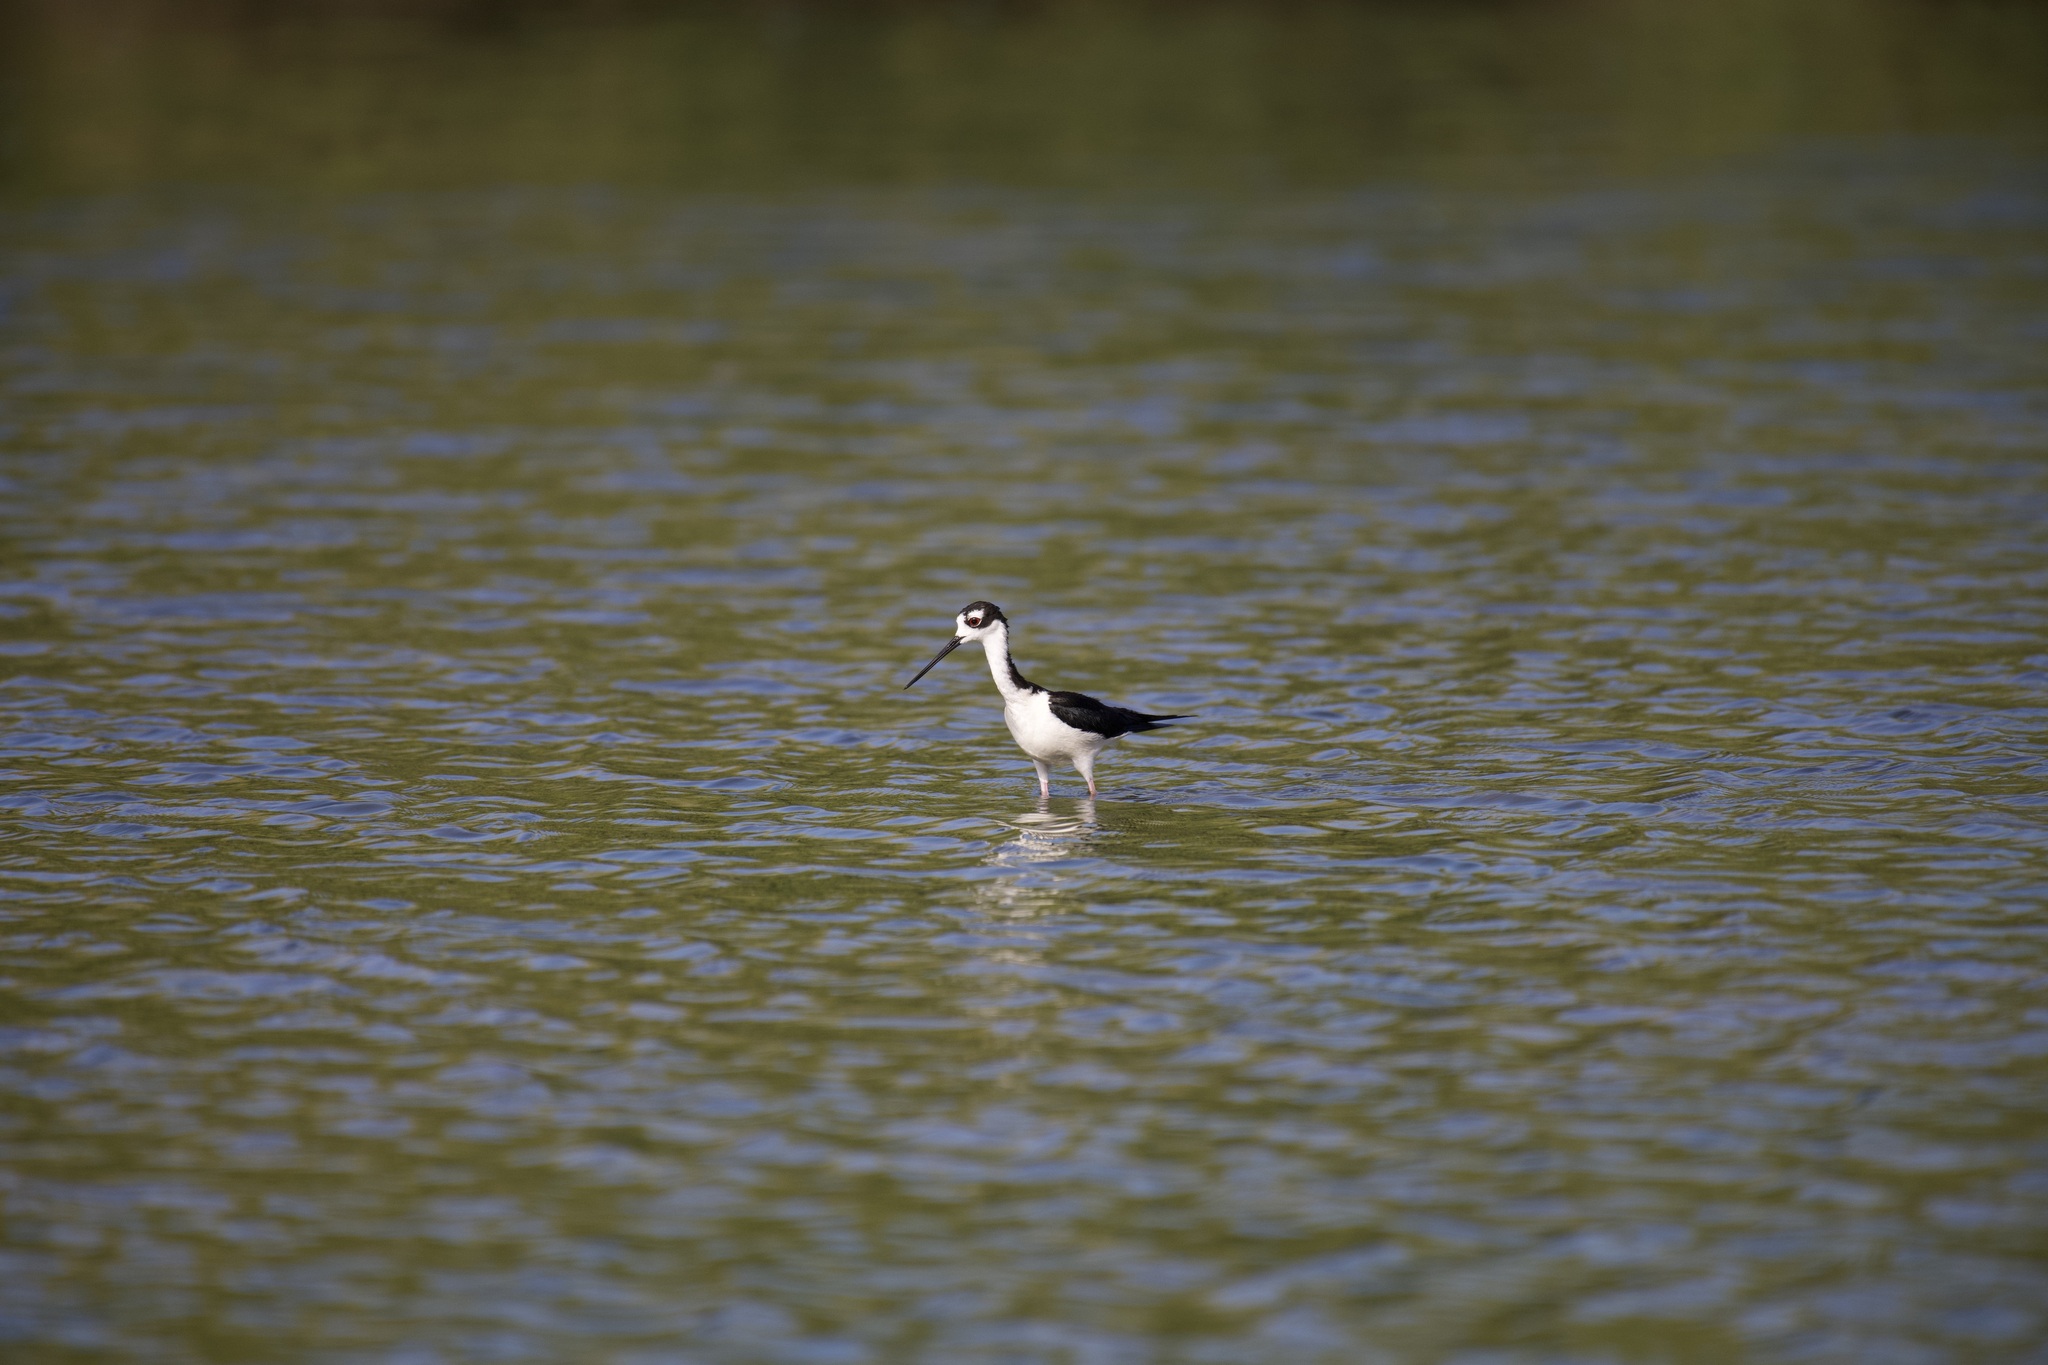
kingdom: Animalia
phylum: Chordata
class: Aves
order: Charadriiformes
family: Recurvirostridae
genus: Himantopus
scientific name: Himantopus mexicanus
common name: Black-necked stilt
